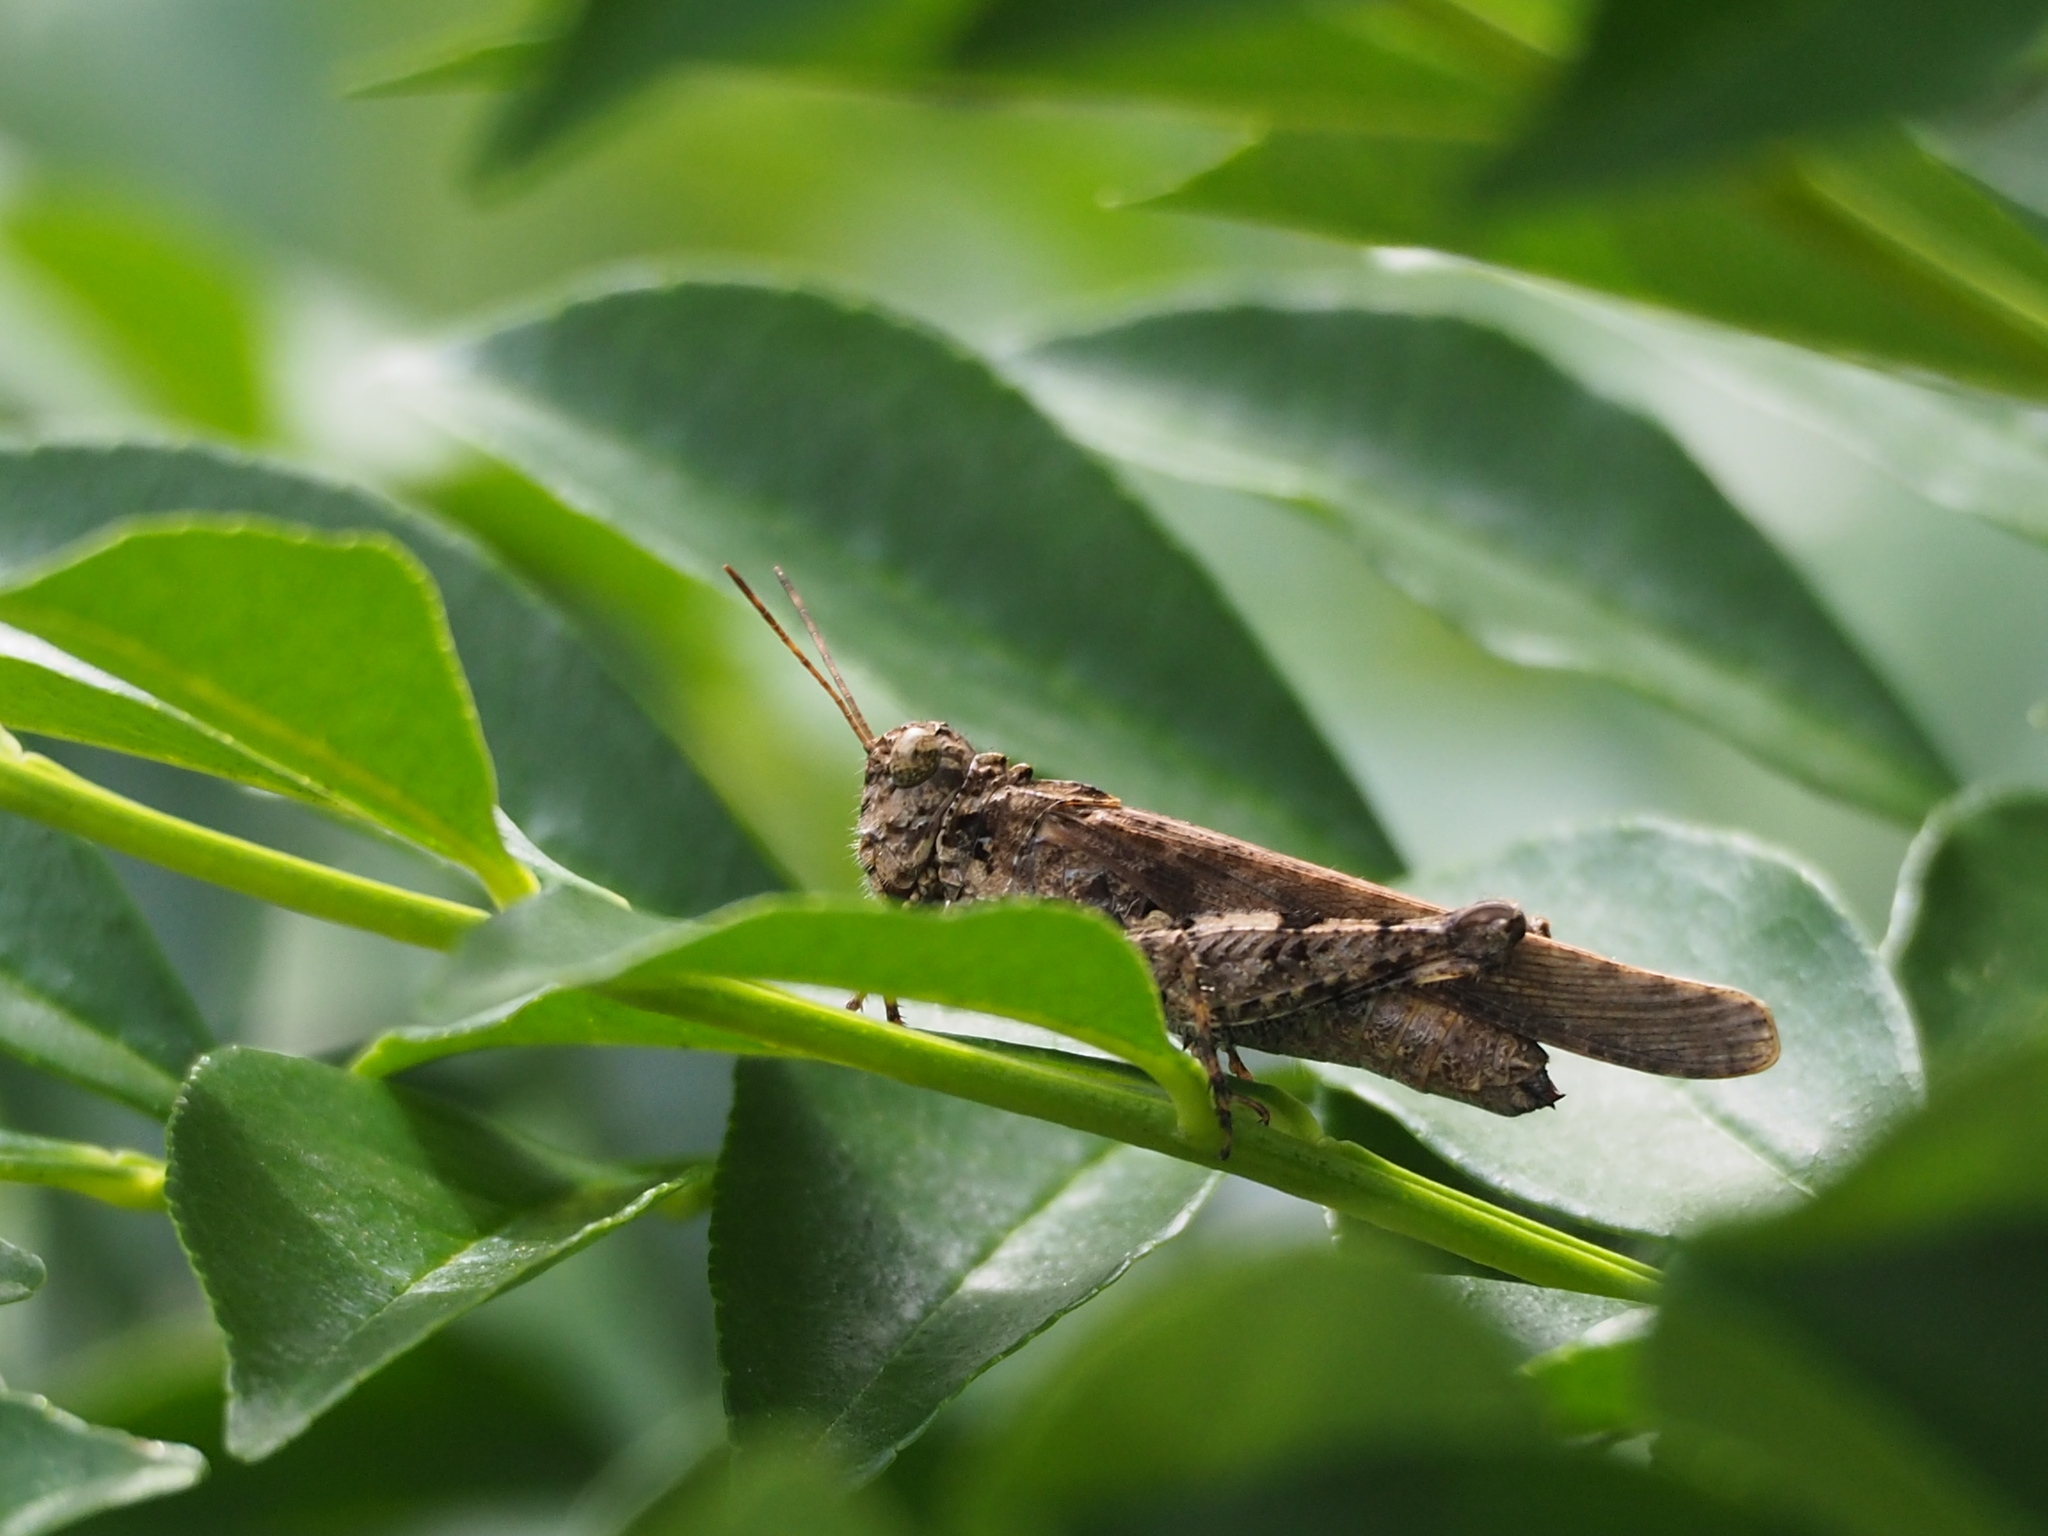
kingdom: Animalia
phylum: Arthropoda
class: Insecta
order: Orthoptera
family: Acrididae
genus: Trilophidia
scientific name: Trilophidia annulata
